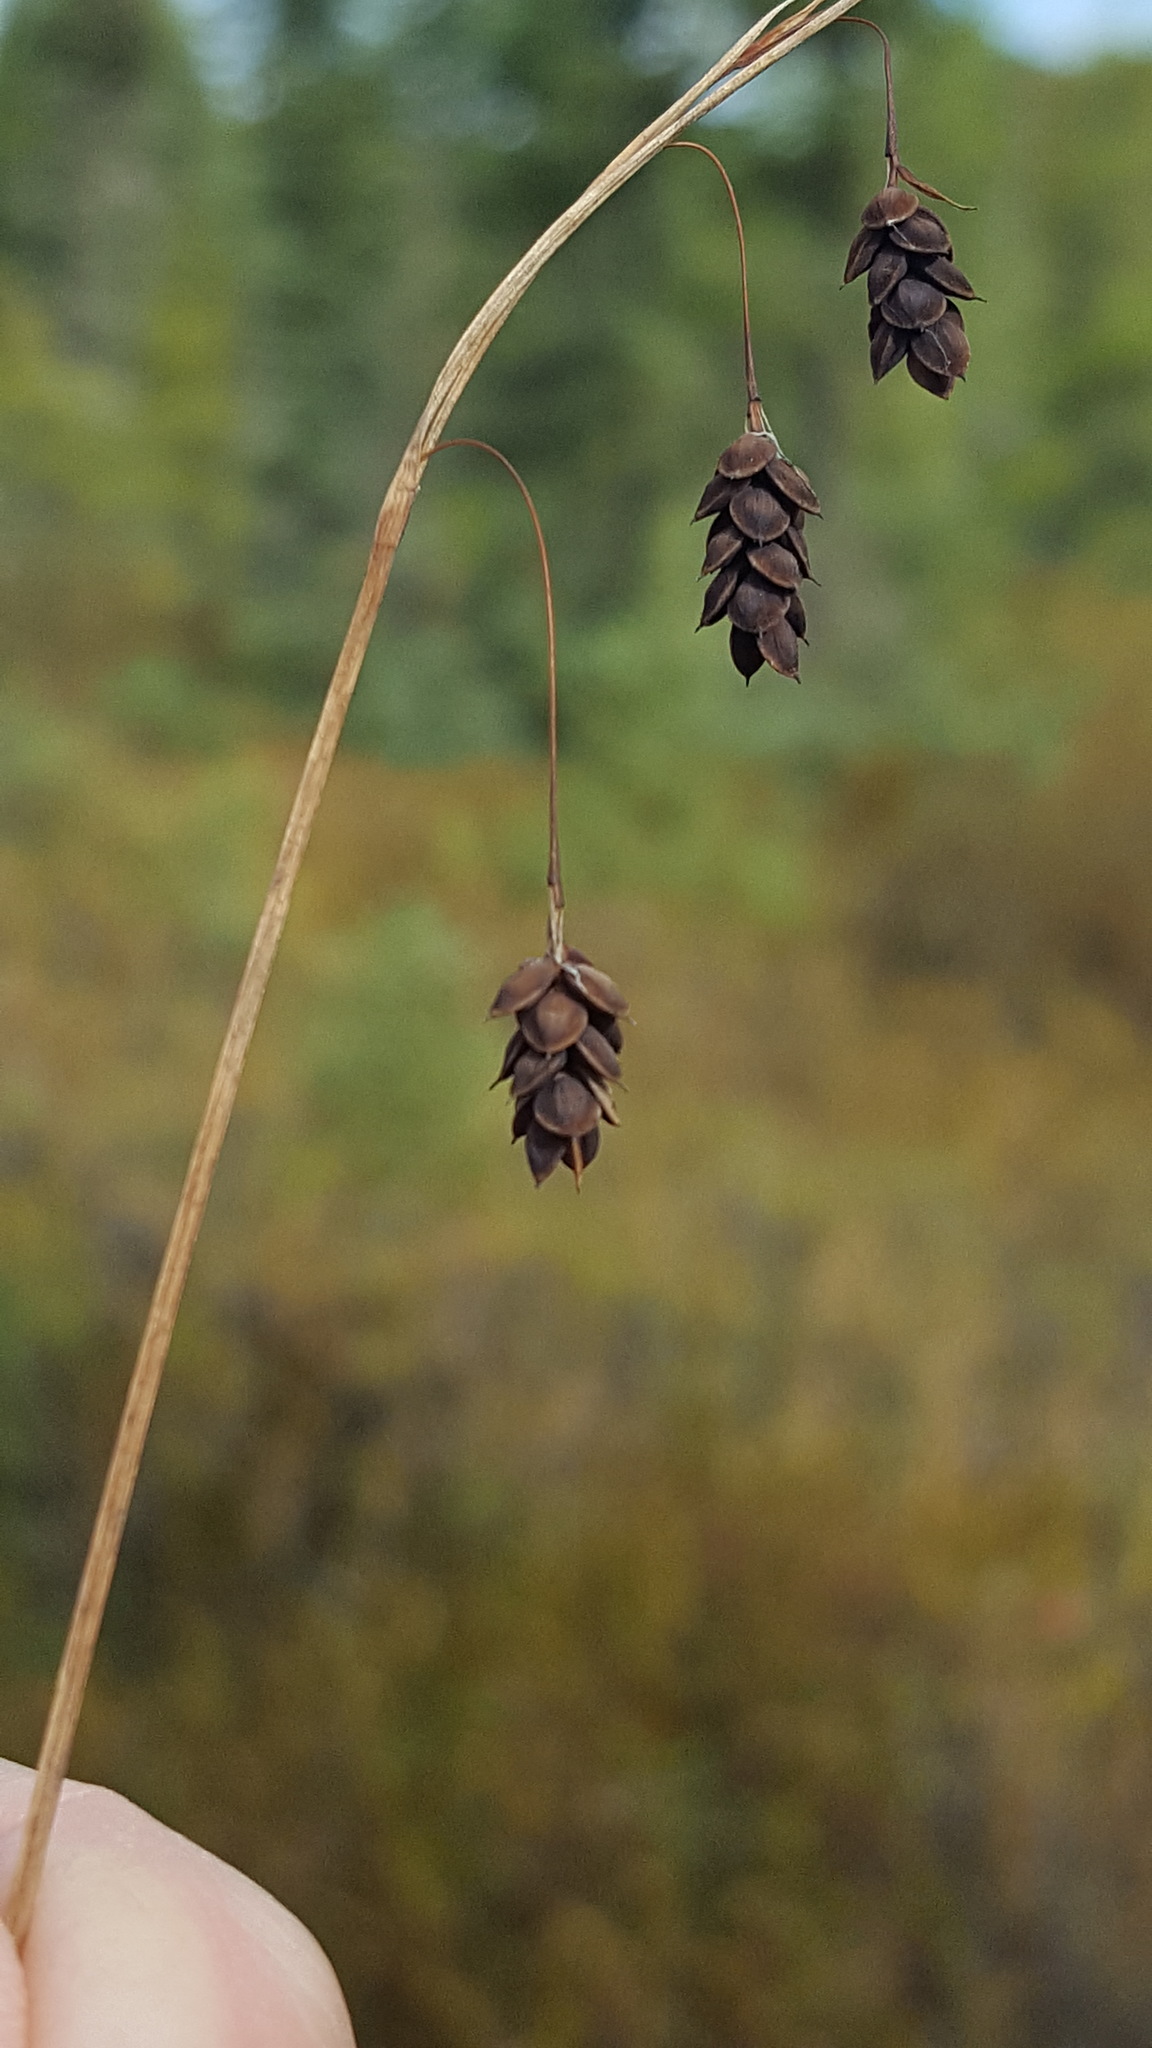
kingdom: Plantae
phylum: Tracheophyta
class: Liliopsida
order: Poales
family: Cyperaceae
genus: Carex
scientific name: Carex magellanica
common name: Bog sedge
